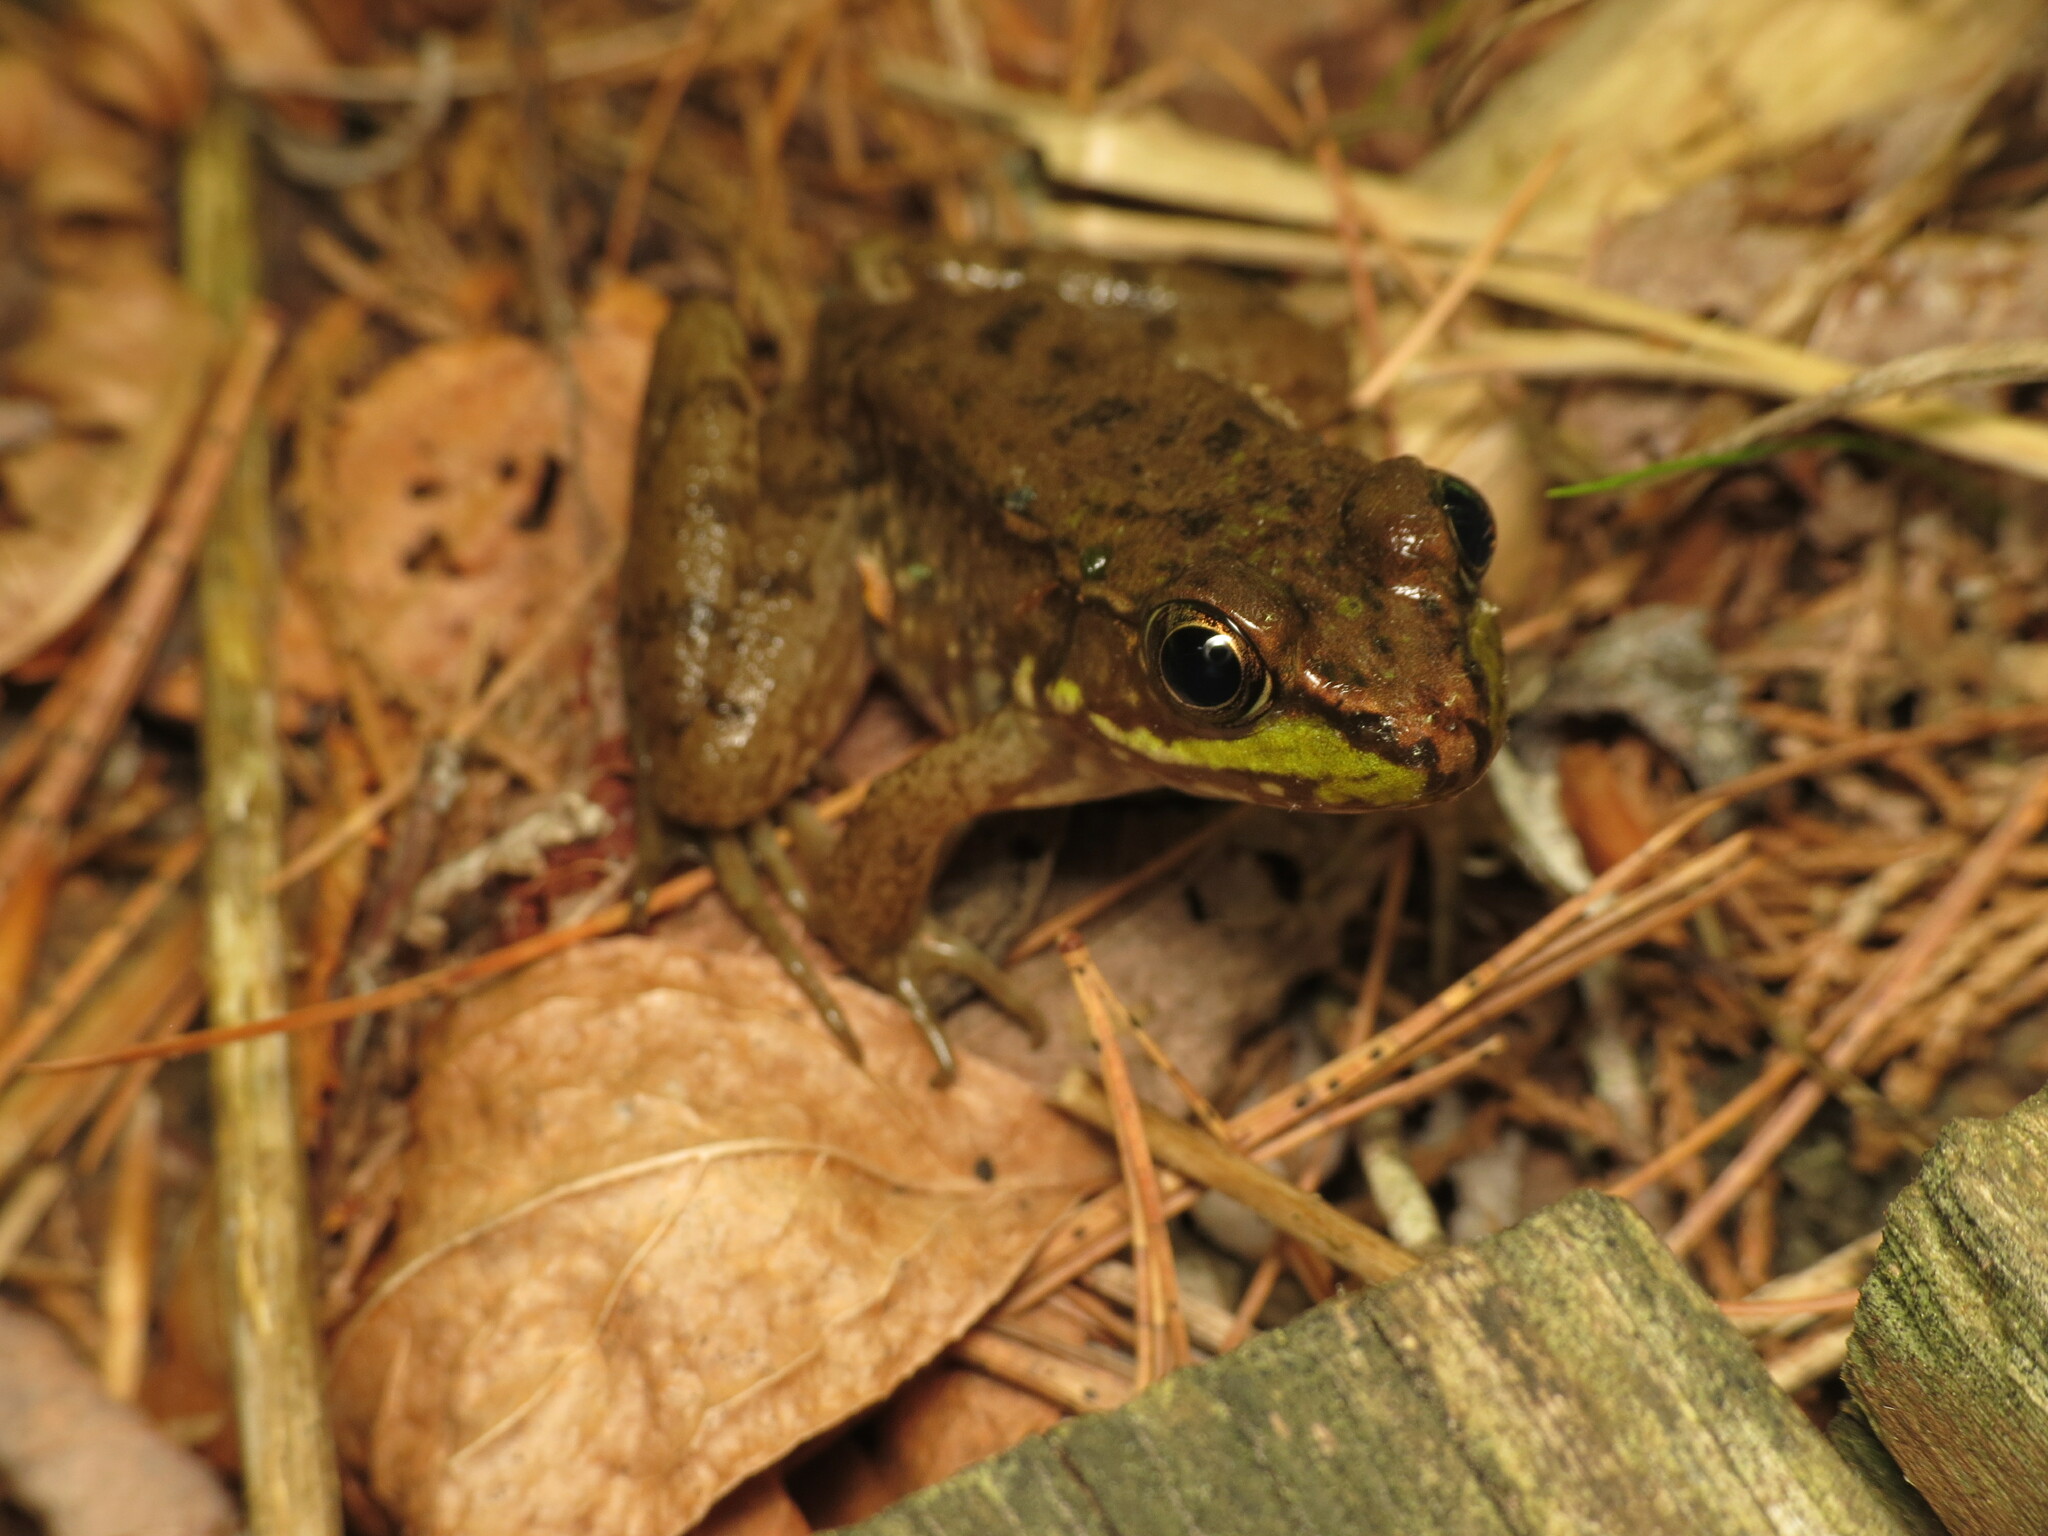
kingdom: Animalia
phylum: Chordata
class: Amphibia
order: Anura
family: Ranidae
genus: Lithobates
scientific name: Lithobates clamitans
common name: Green frog
